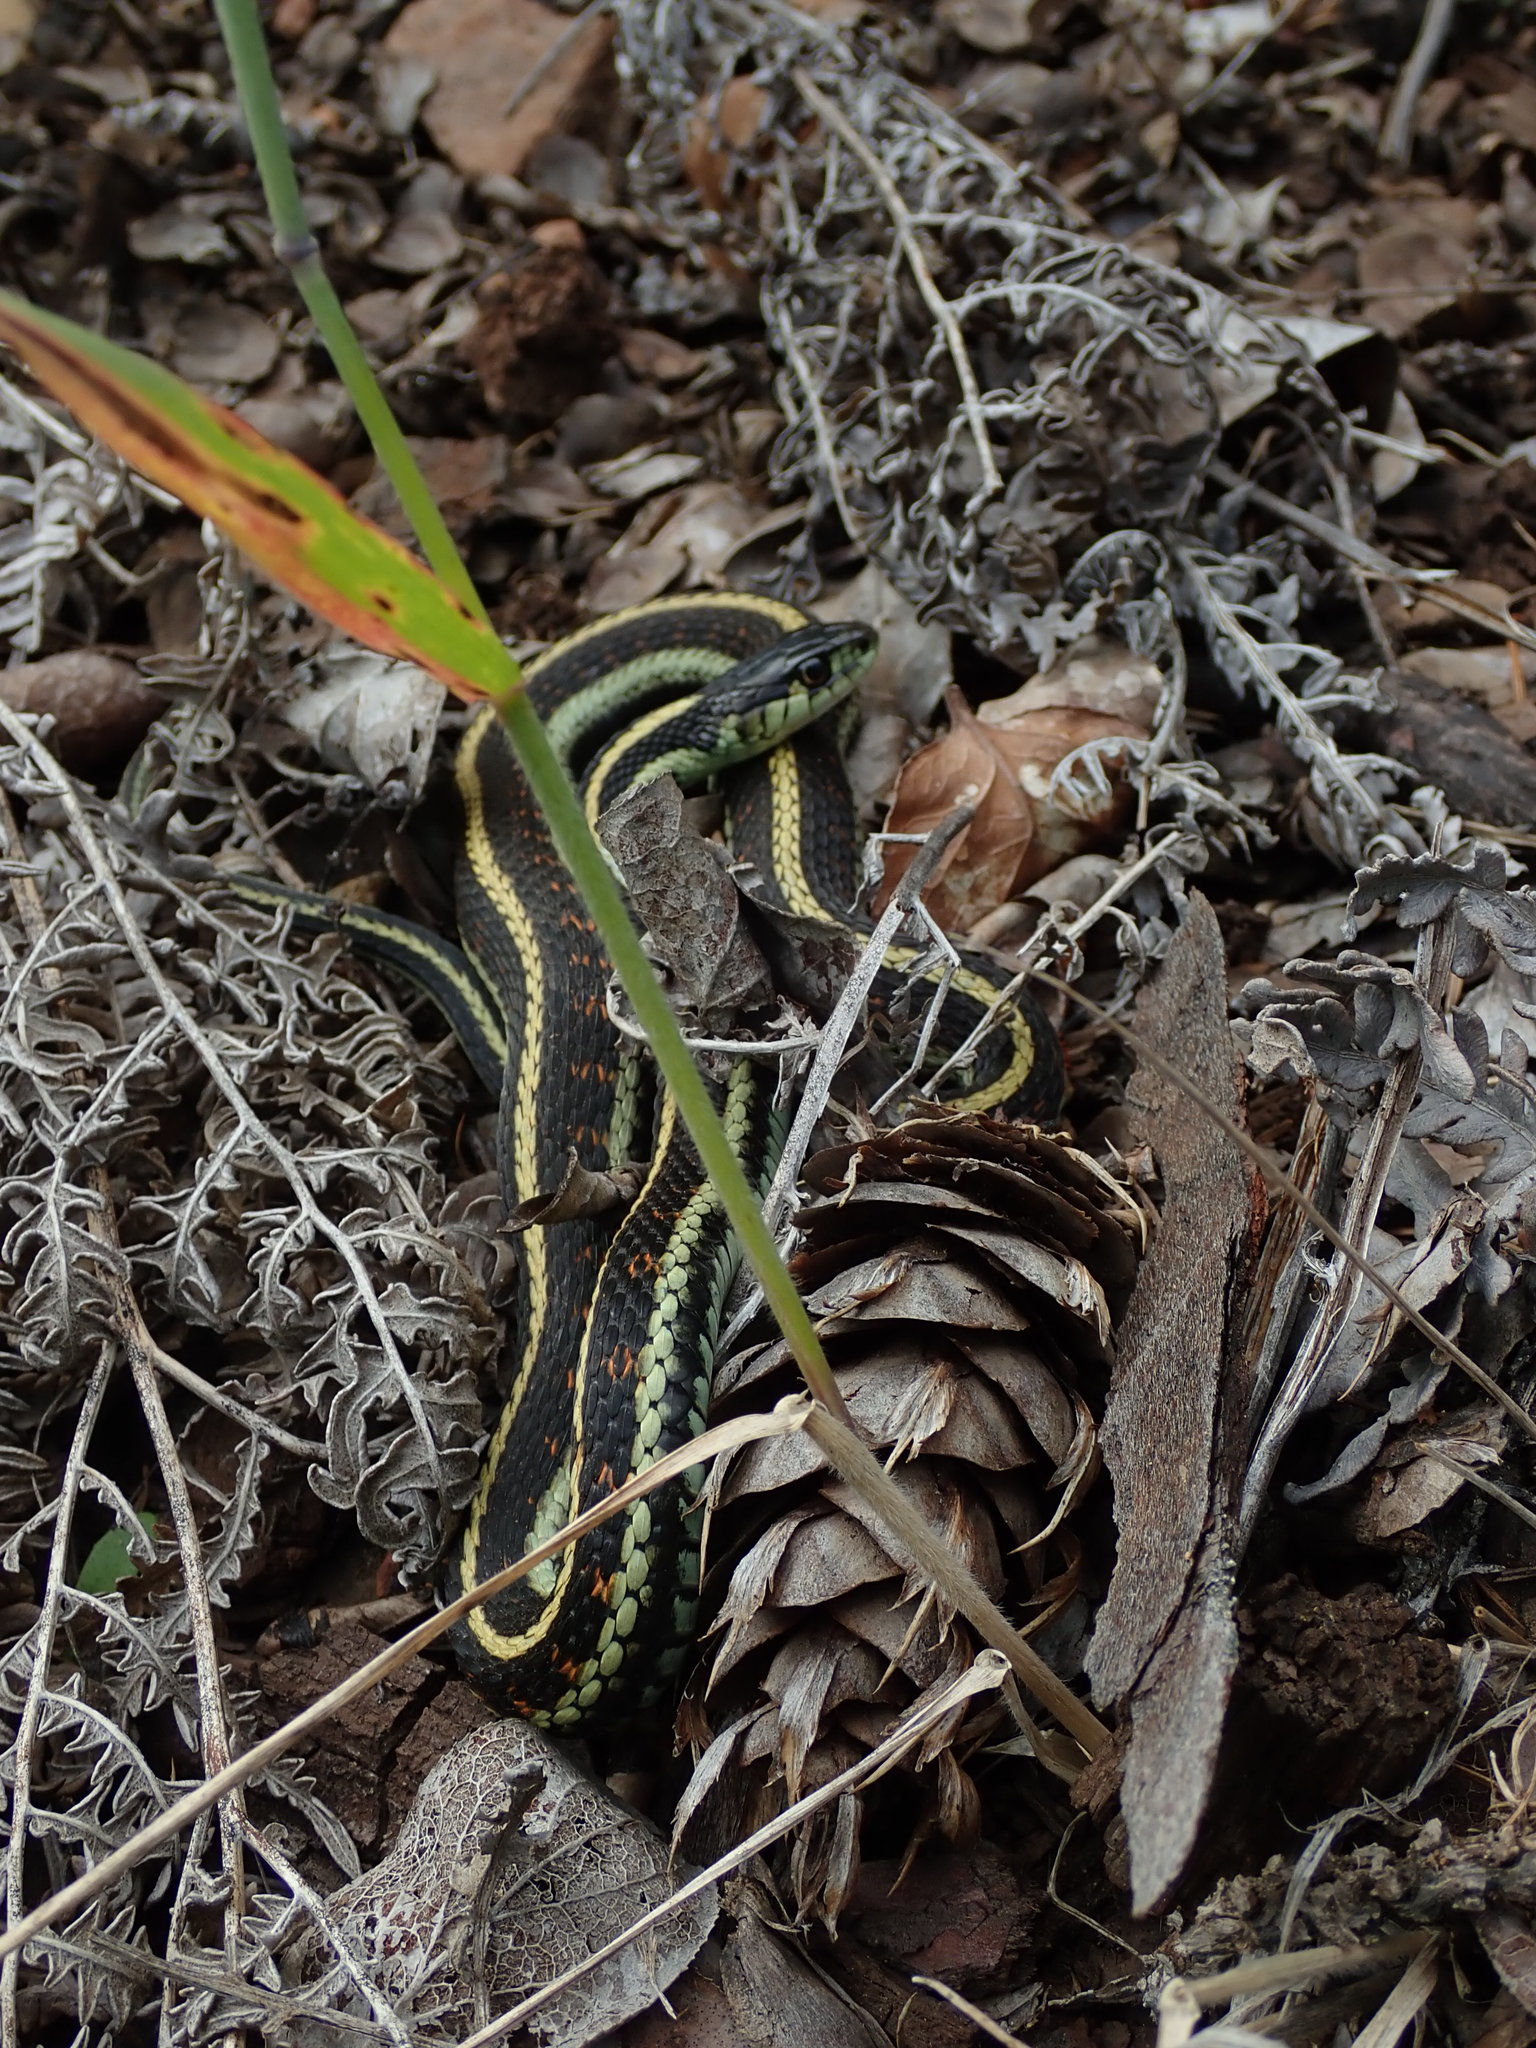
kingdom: Animalia
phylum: Chordata
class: Squamata
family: Colubridae
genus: Thamnophis
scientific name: Thamnophis sirtalis
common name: Common garter snake
